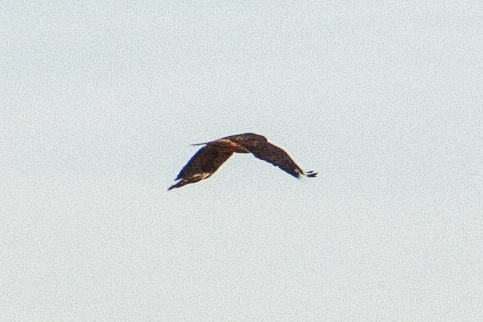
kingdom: Animalia
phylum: Chordata
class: Aves
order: Accipitriformes
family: Accipitridae
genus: Buteo
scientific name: Buteo jamaicensis
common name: Red-tailed hawk
